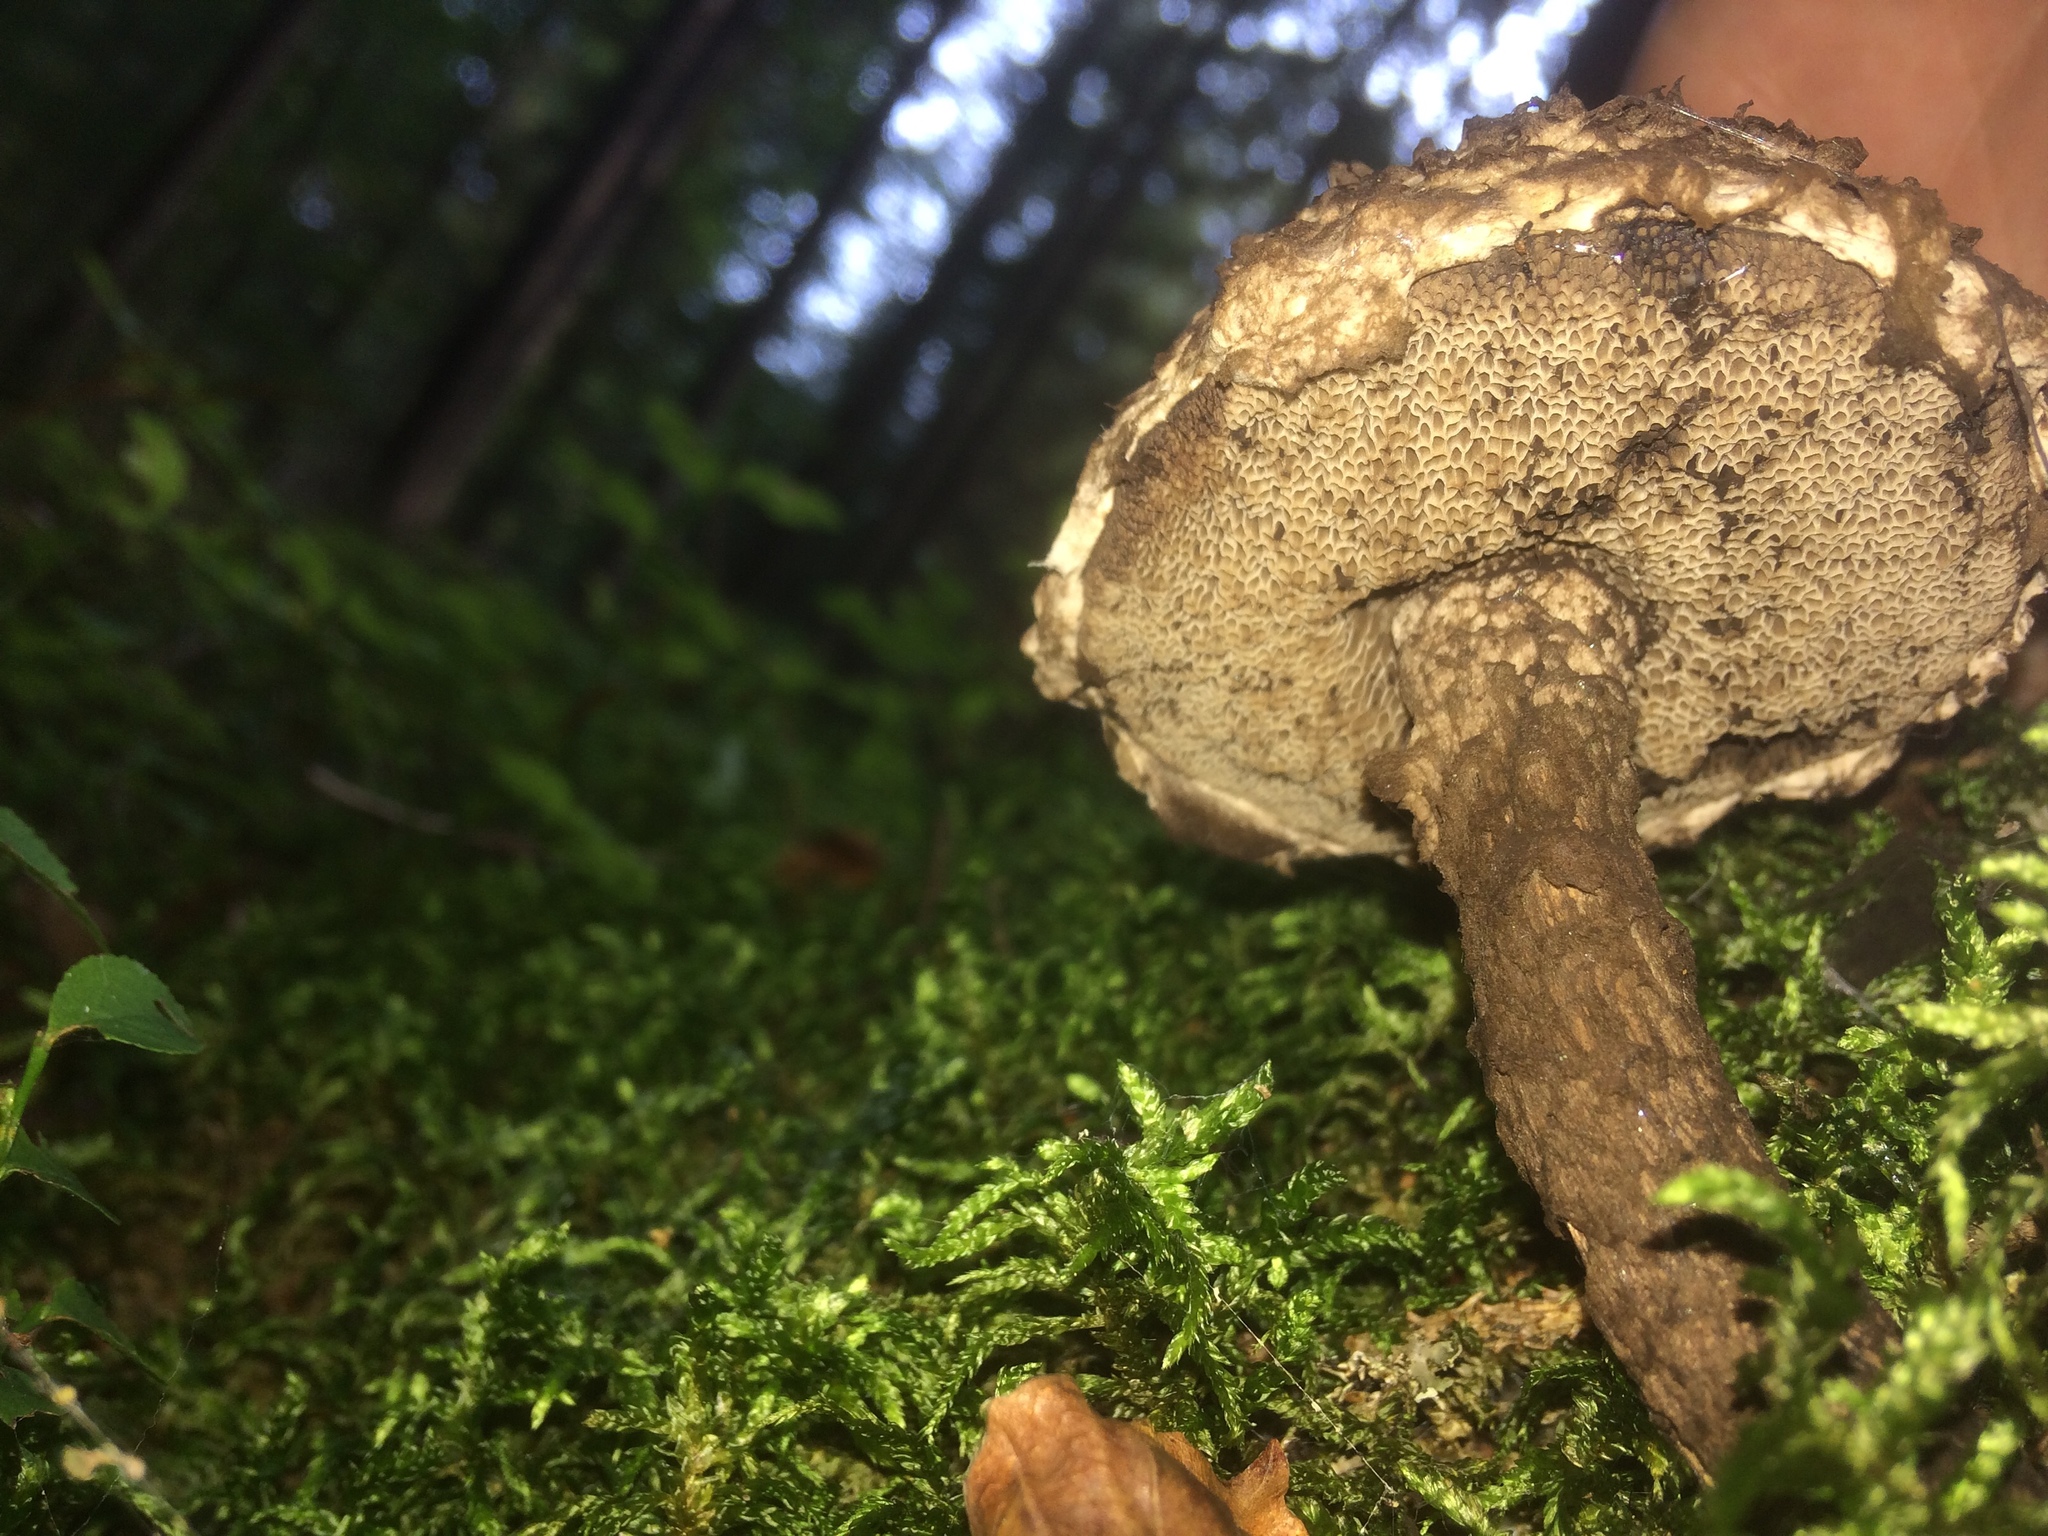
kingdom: Fungi
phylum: Basidiomycota
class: Agaricomycetes
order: Boletales
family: Boletaceae
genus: Strobilomyces
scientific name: Strobilomyces strobilaceus
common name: Old man of the woods
